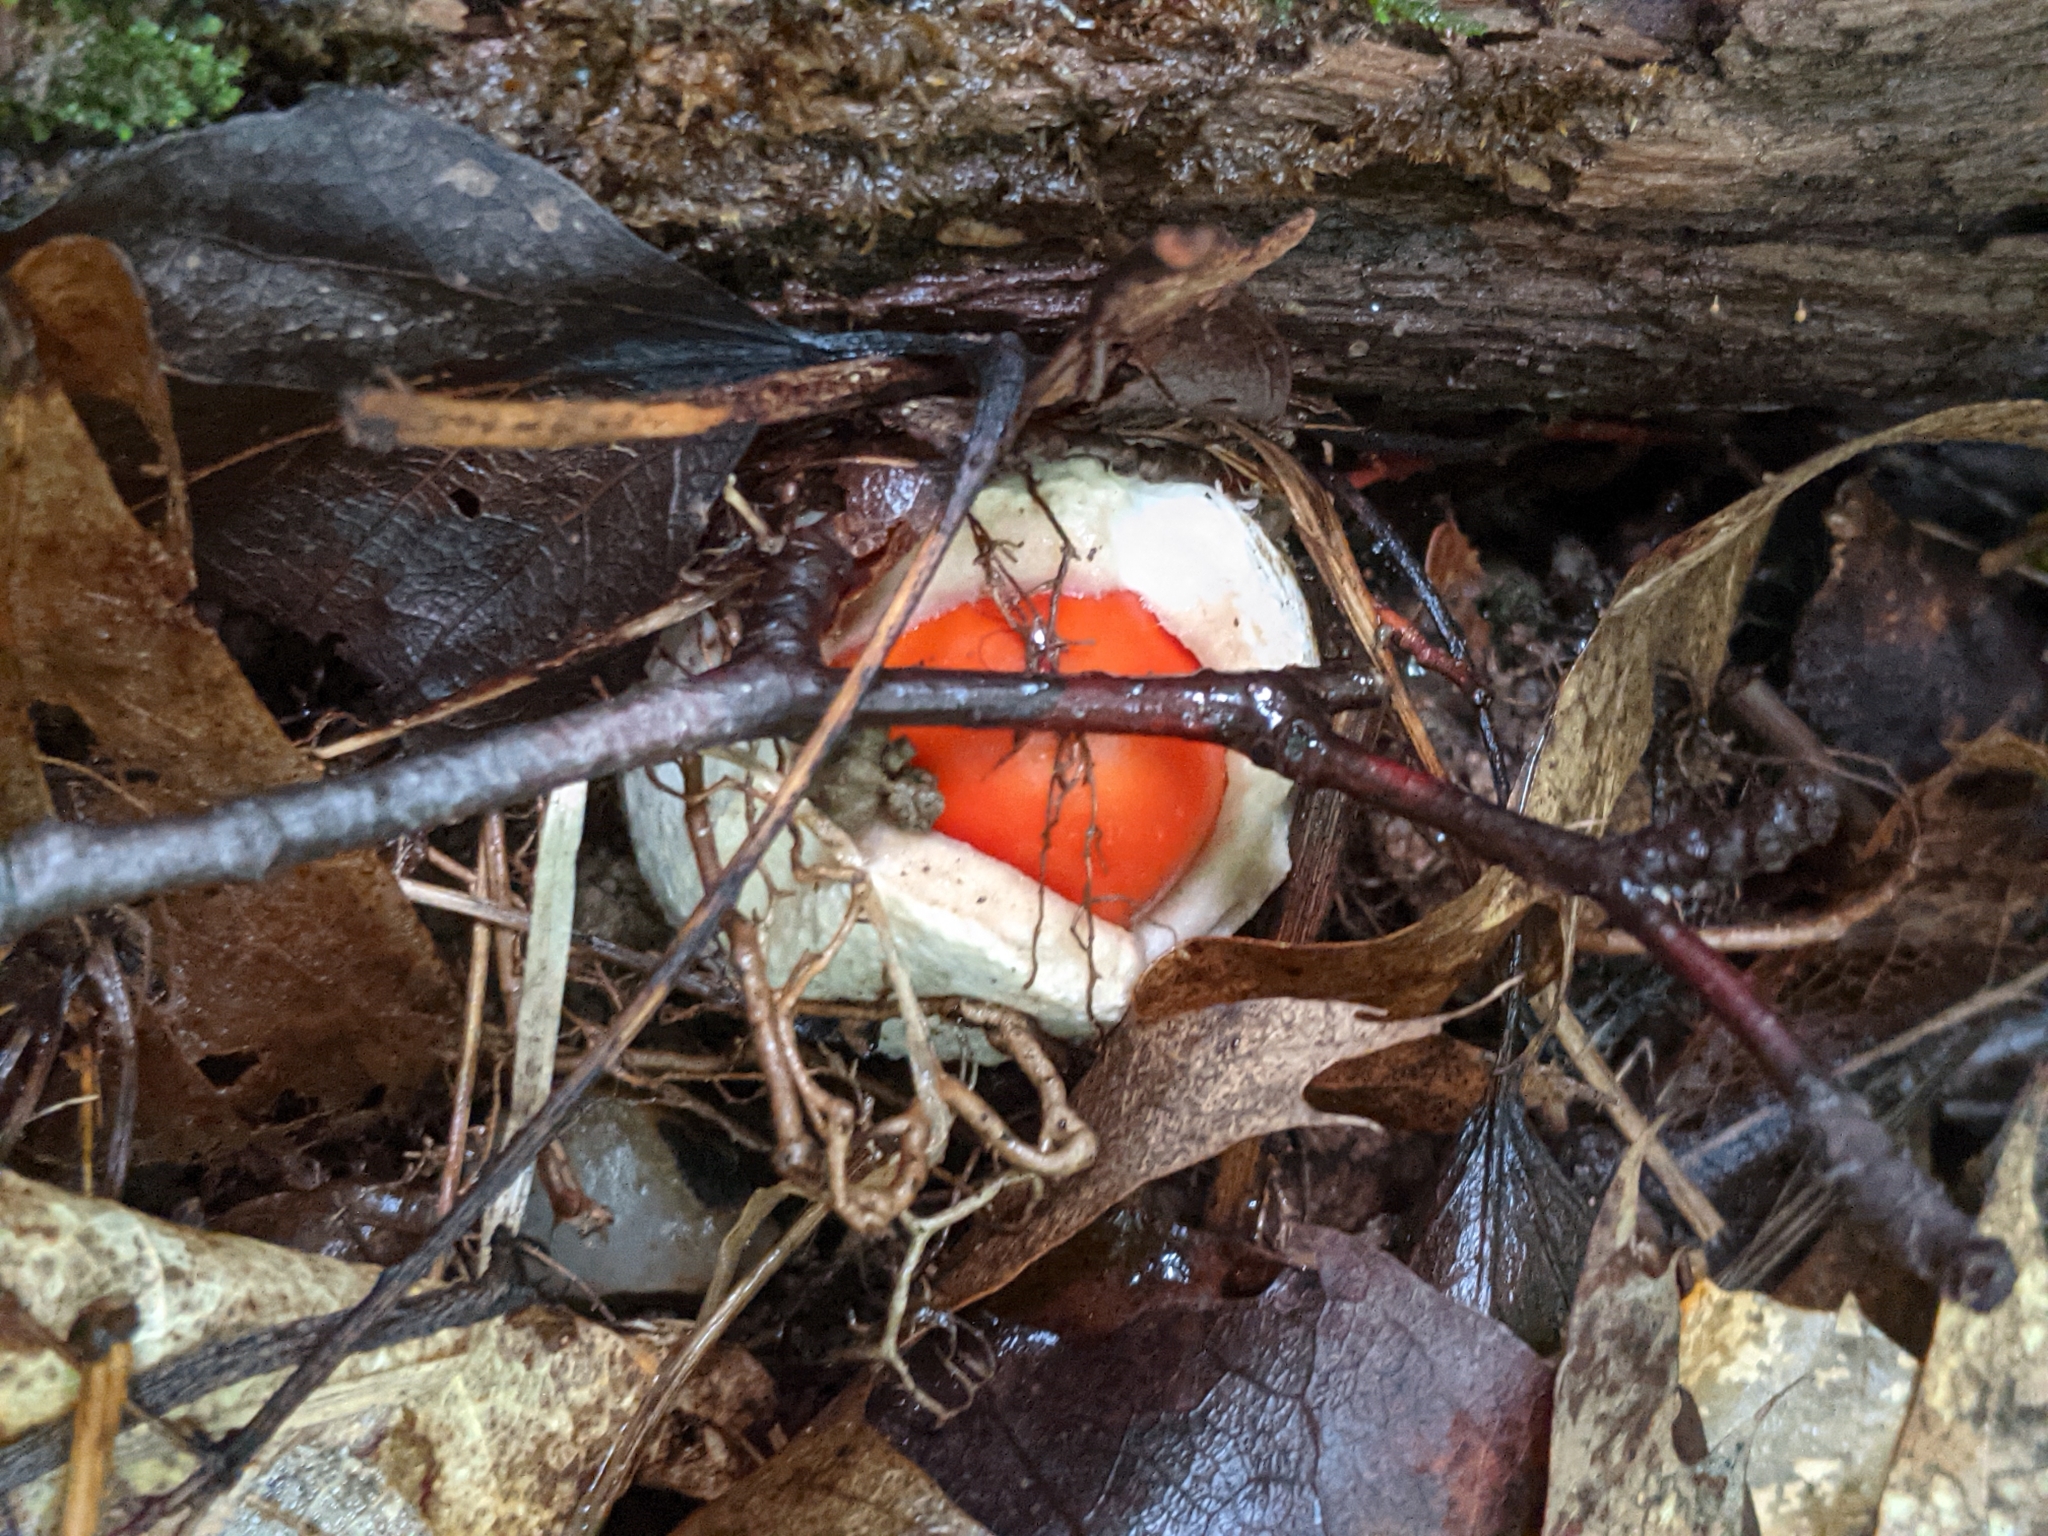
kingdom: Fungi
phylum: Basidiomycota
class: Agaricomycetes
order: Agaricales
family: Amanitaceae
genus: Amanita
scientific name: Amanita jacksonii
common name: Jackson's slender caesar
